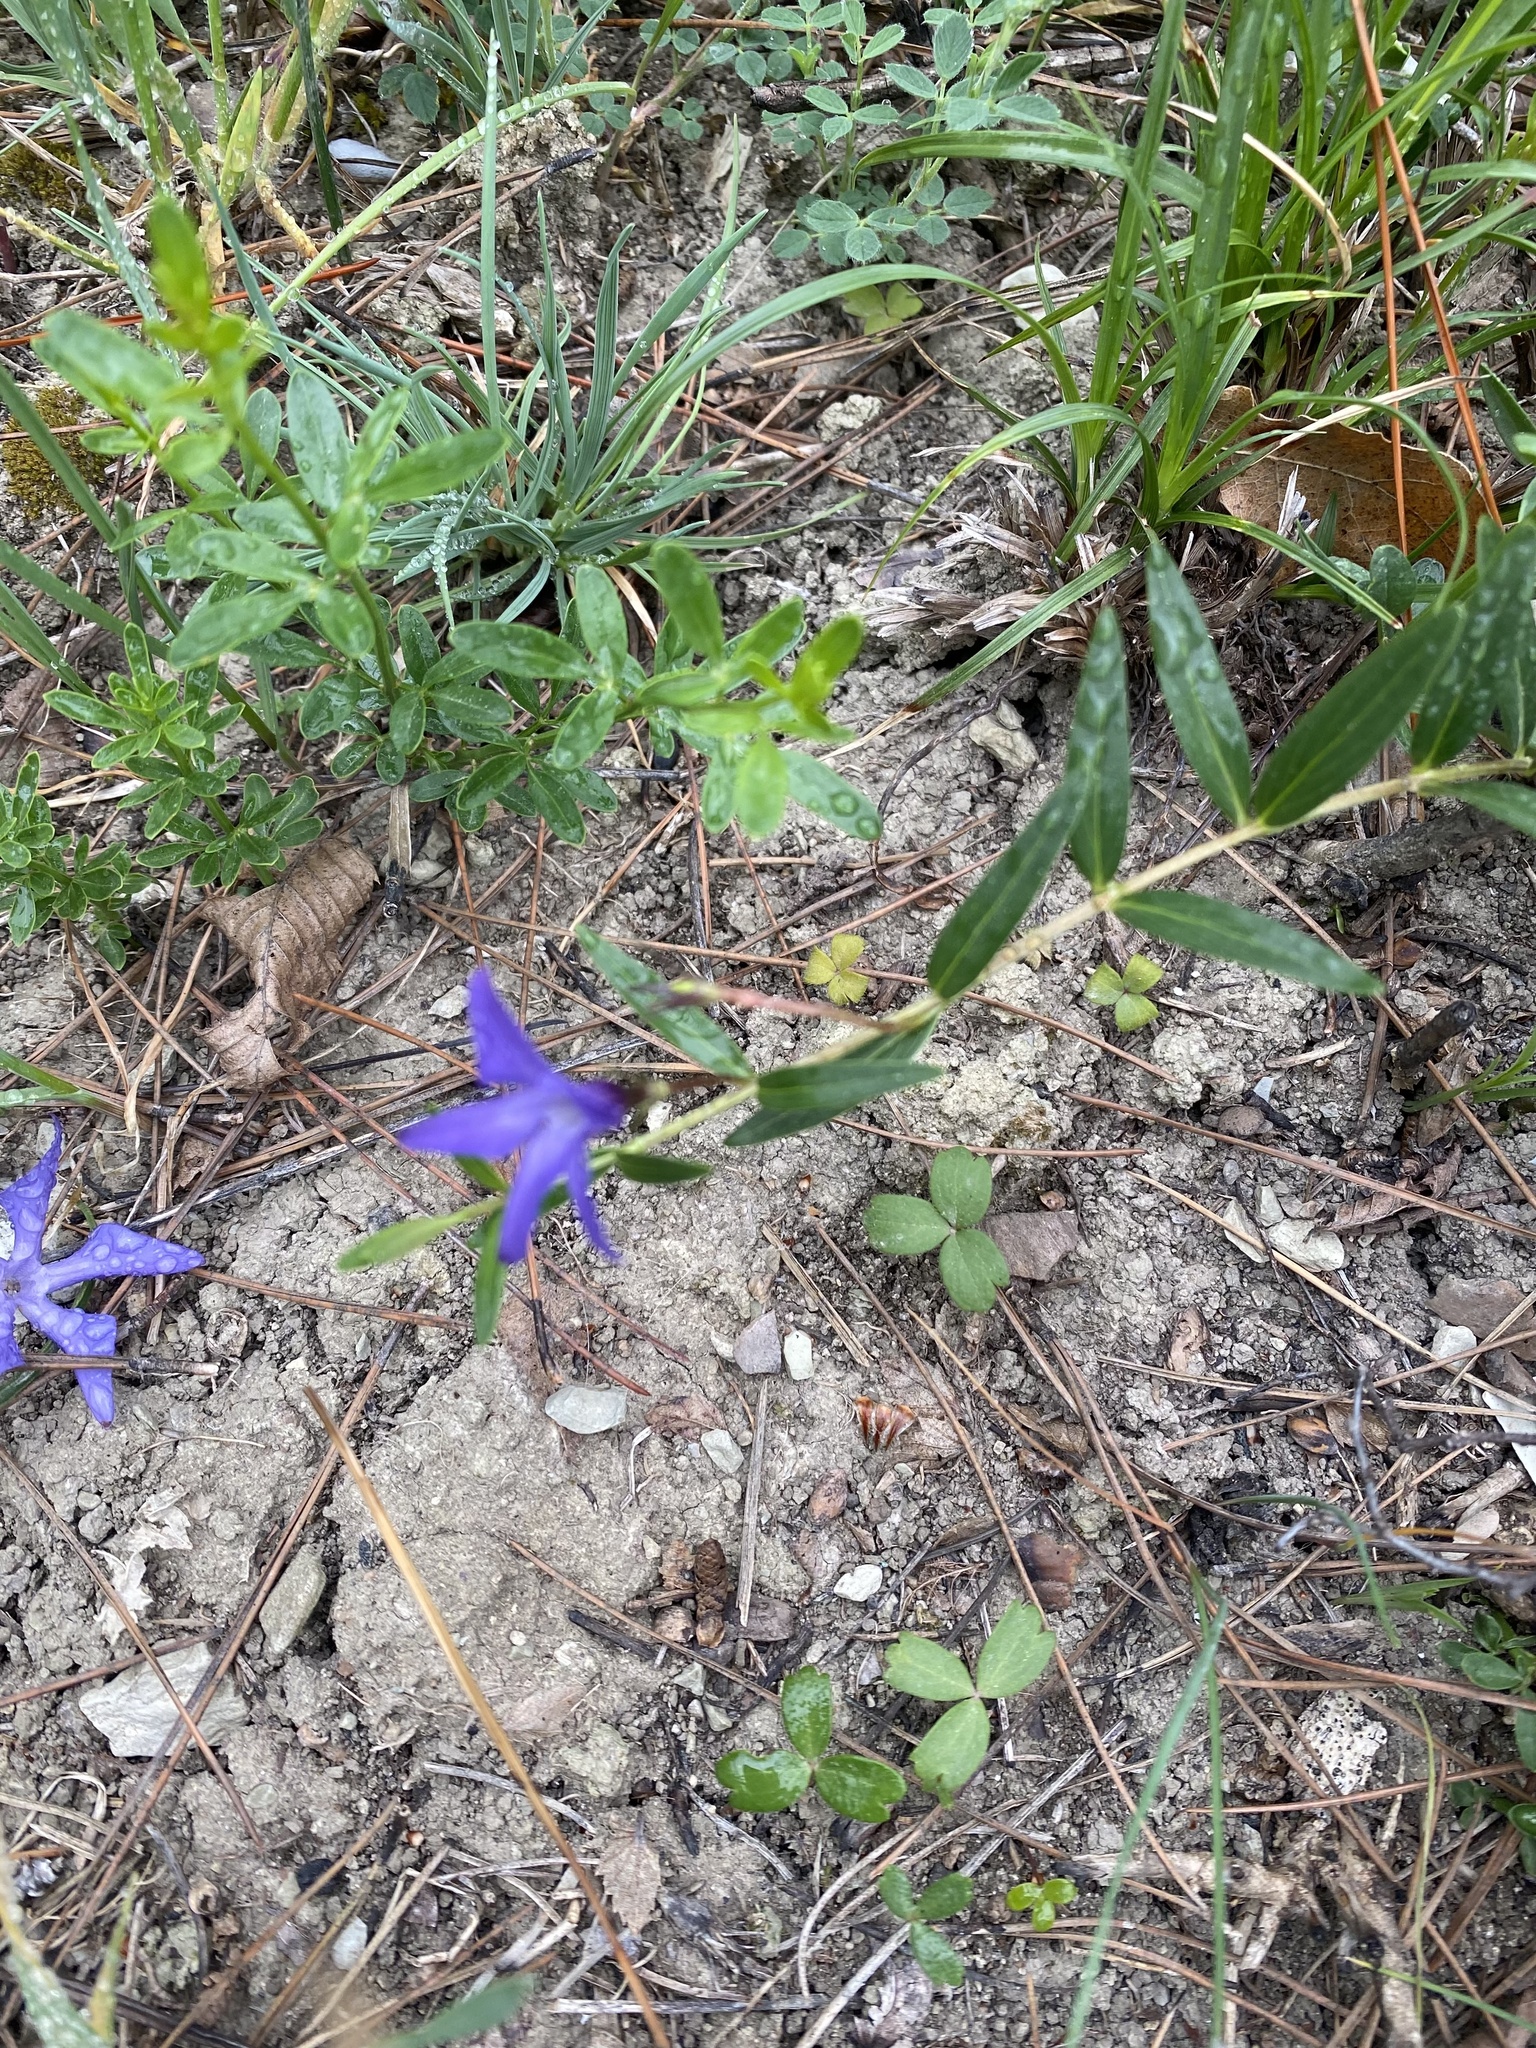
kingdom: Plantae
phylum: Tracheophyta
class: Magnoliopsida
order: Gentianales
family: Apocynaceae
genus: Vinca
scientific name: Vinca herbacea
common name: Herbaceous periwinkle
